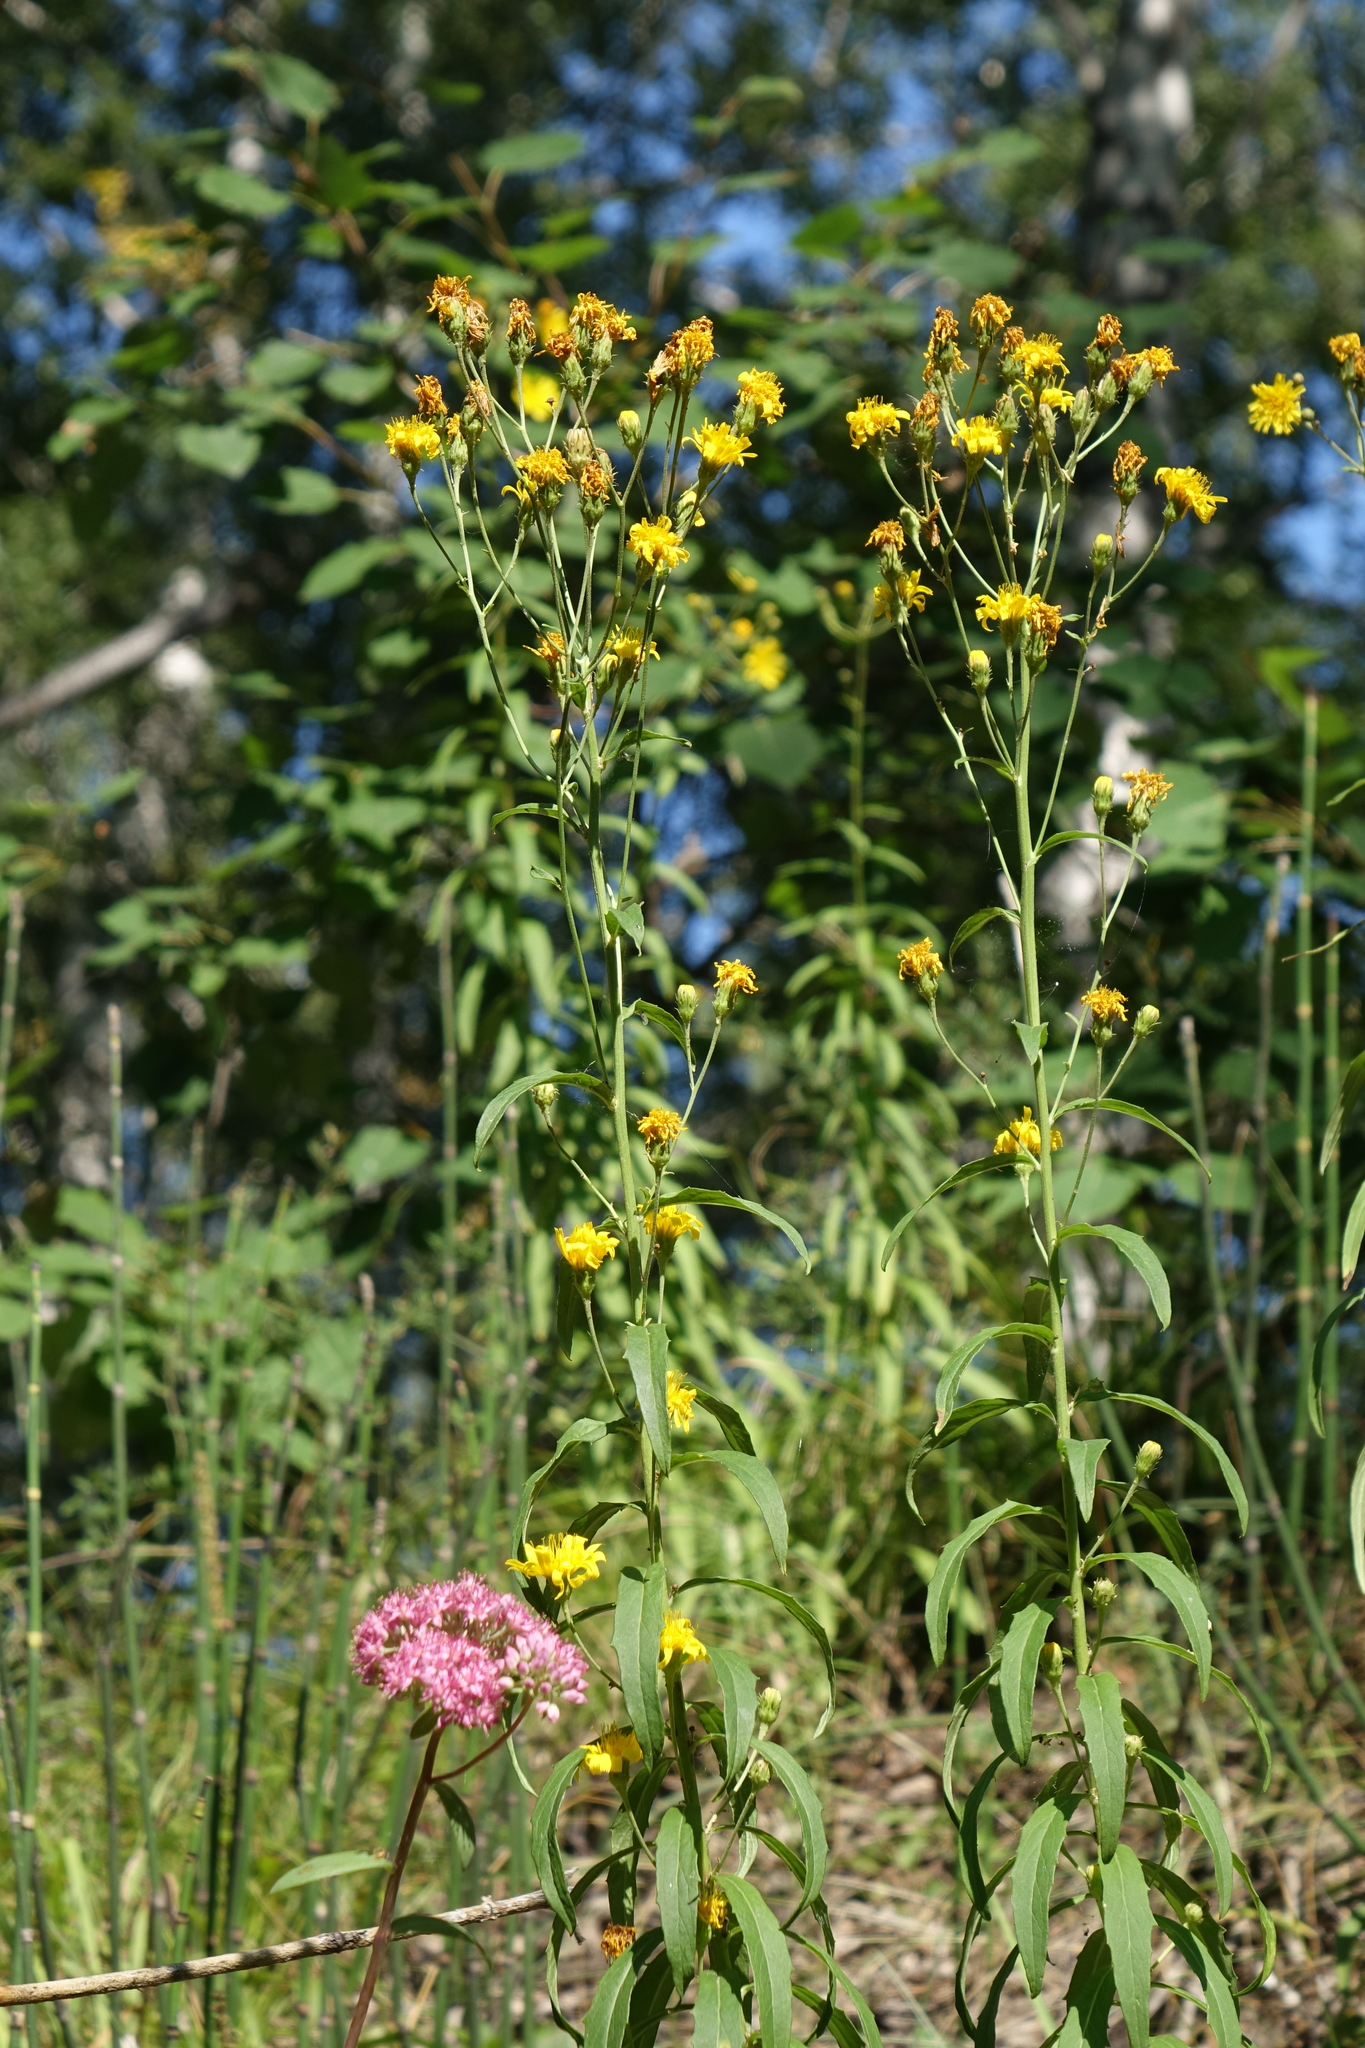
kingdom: Plantae
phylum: Tracheophyta
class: Magnoliopsida
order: Asterales
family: Asteraceae
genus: Hieracium
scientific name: Hieracium umbellatum
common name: Northern hawkweed
